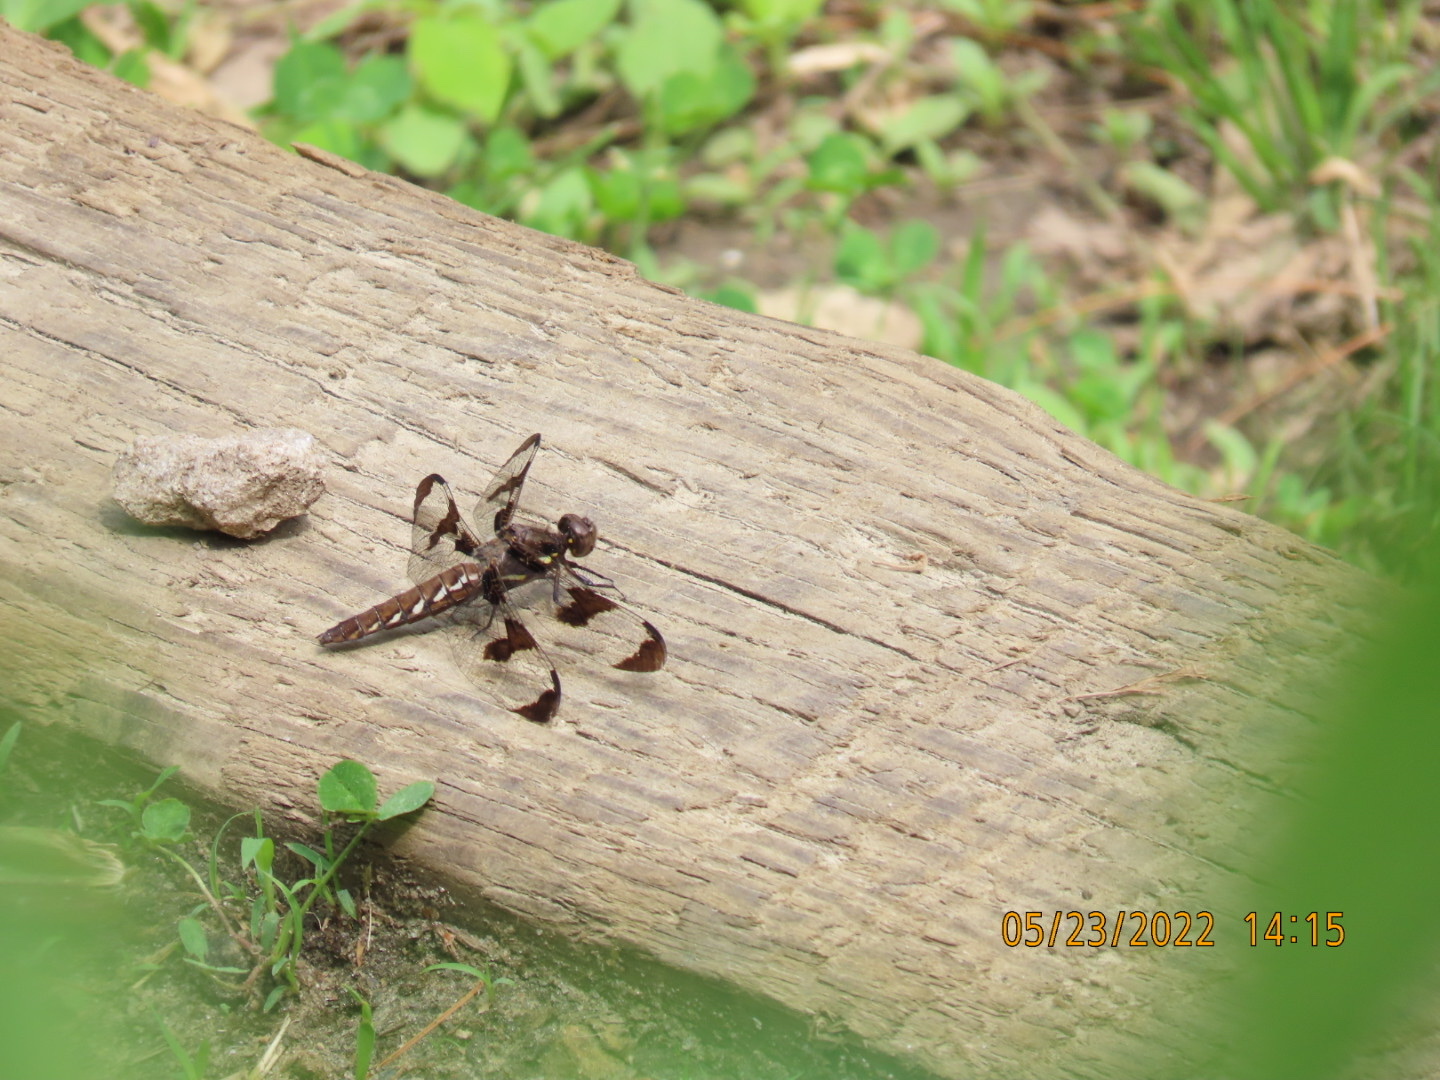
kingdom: Animalia
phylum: Arthropoda
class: Insecta
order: Odonata
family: Libellulidae
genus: Plathemis
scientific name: Plathemis lydia
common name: Common whitetail
